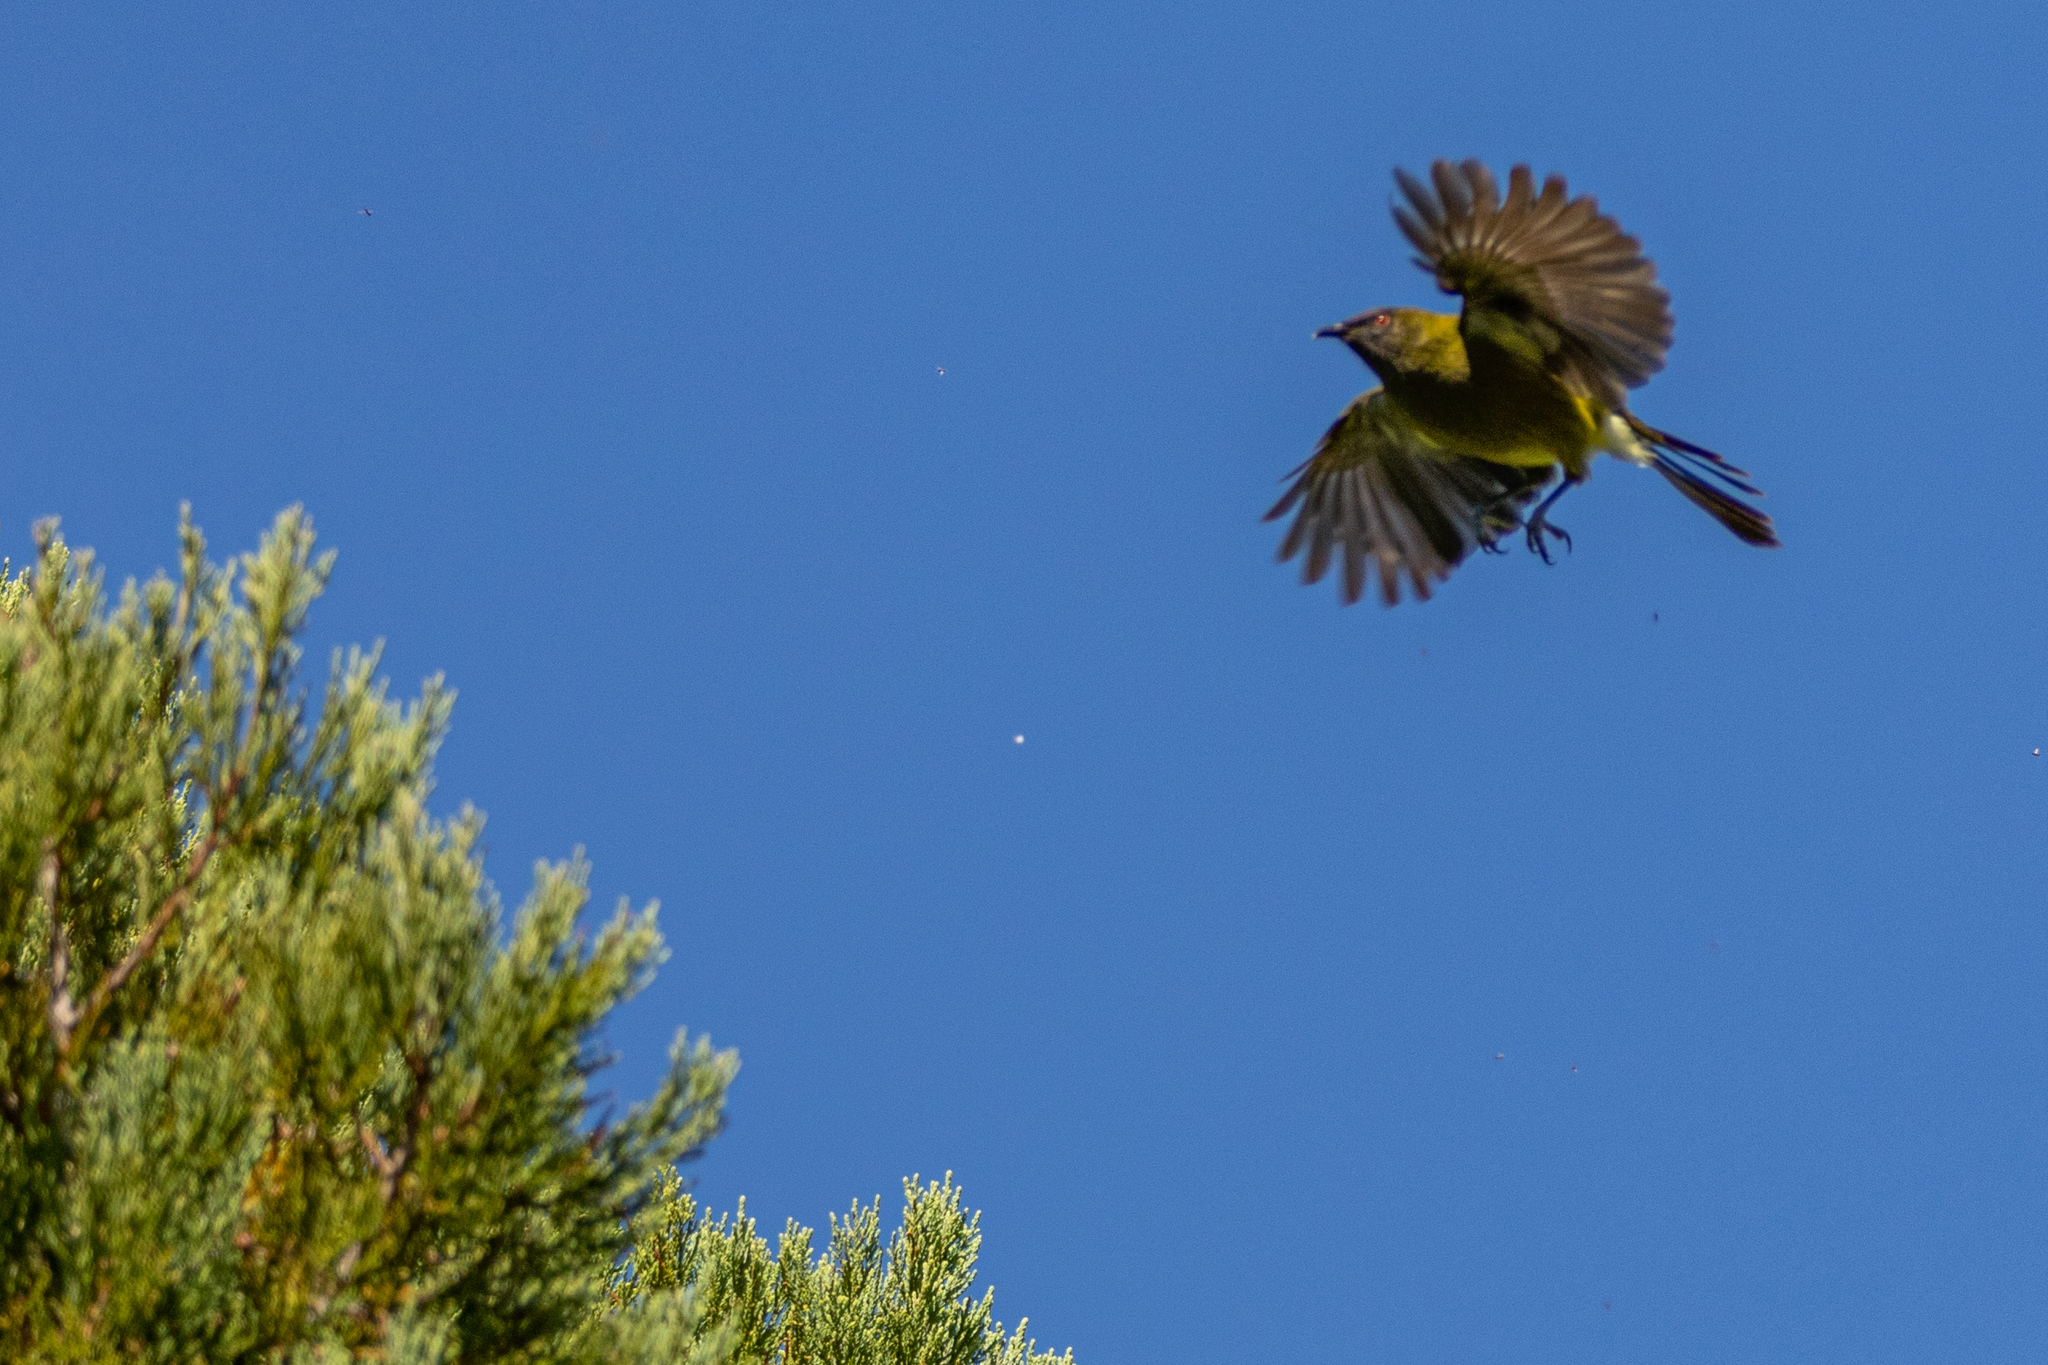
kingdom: Animalia
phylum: Chordata
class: Aves
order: Passeriformes
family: Meliphagidae
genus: Anthornis
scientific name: Anthornis melanura
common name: New zealand bellbird
